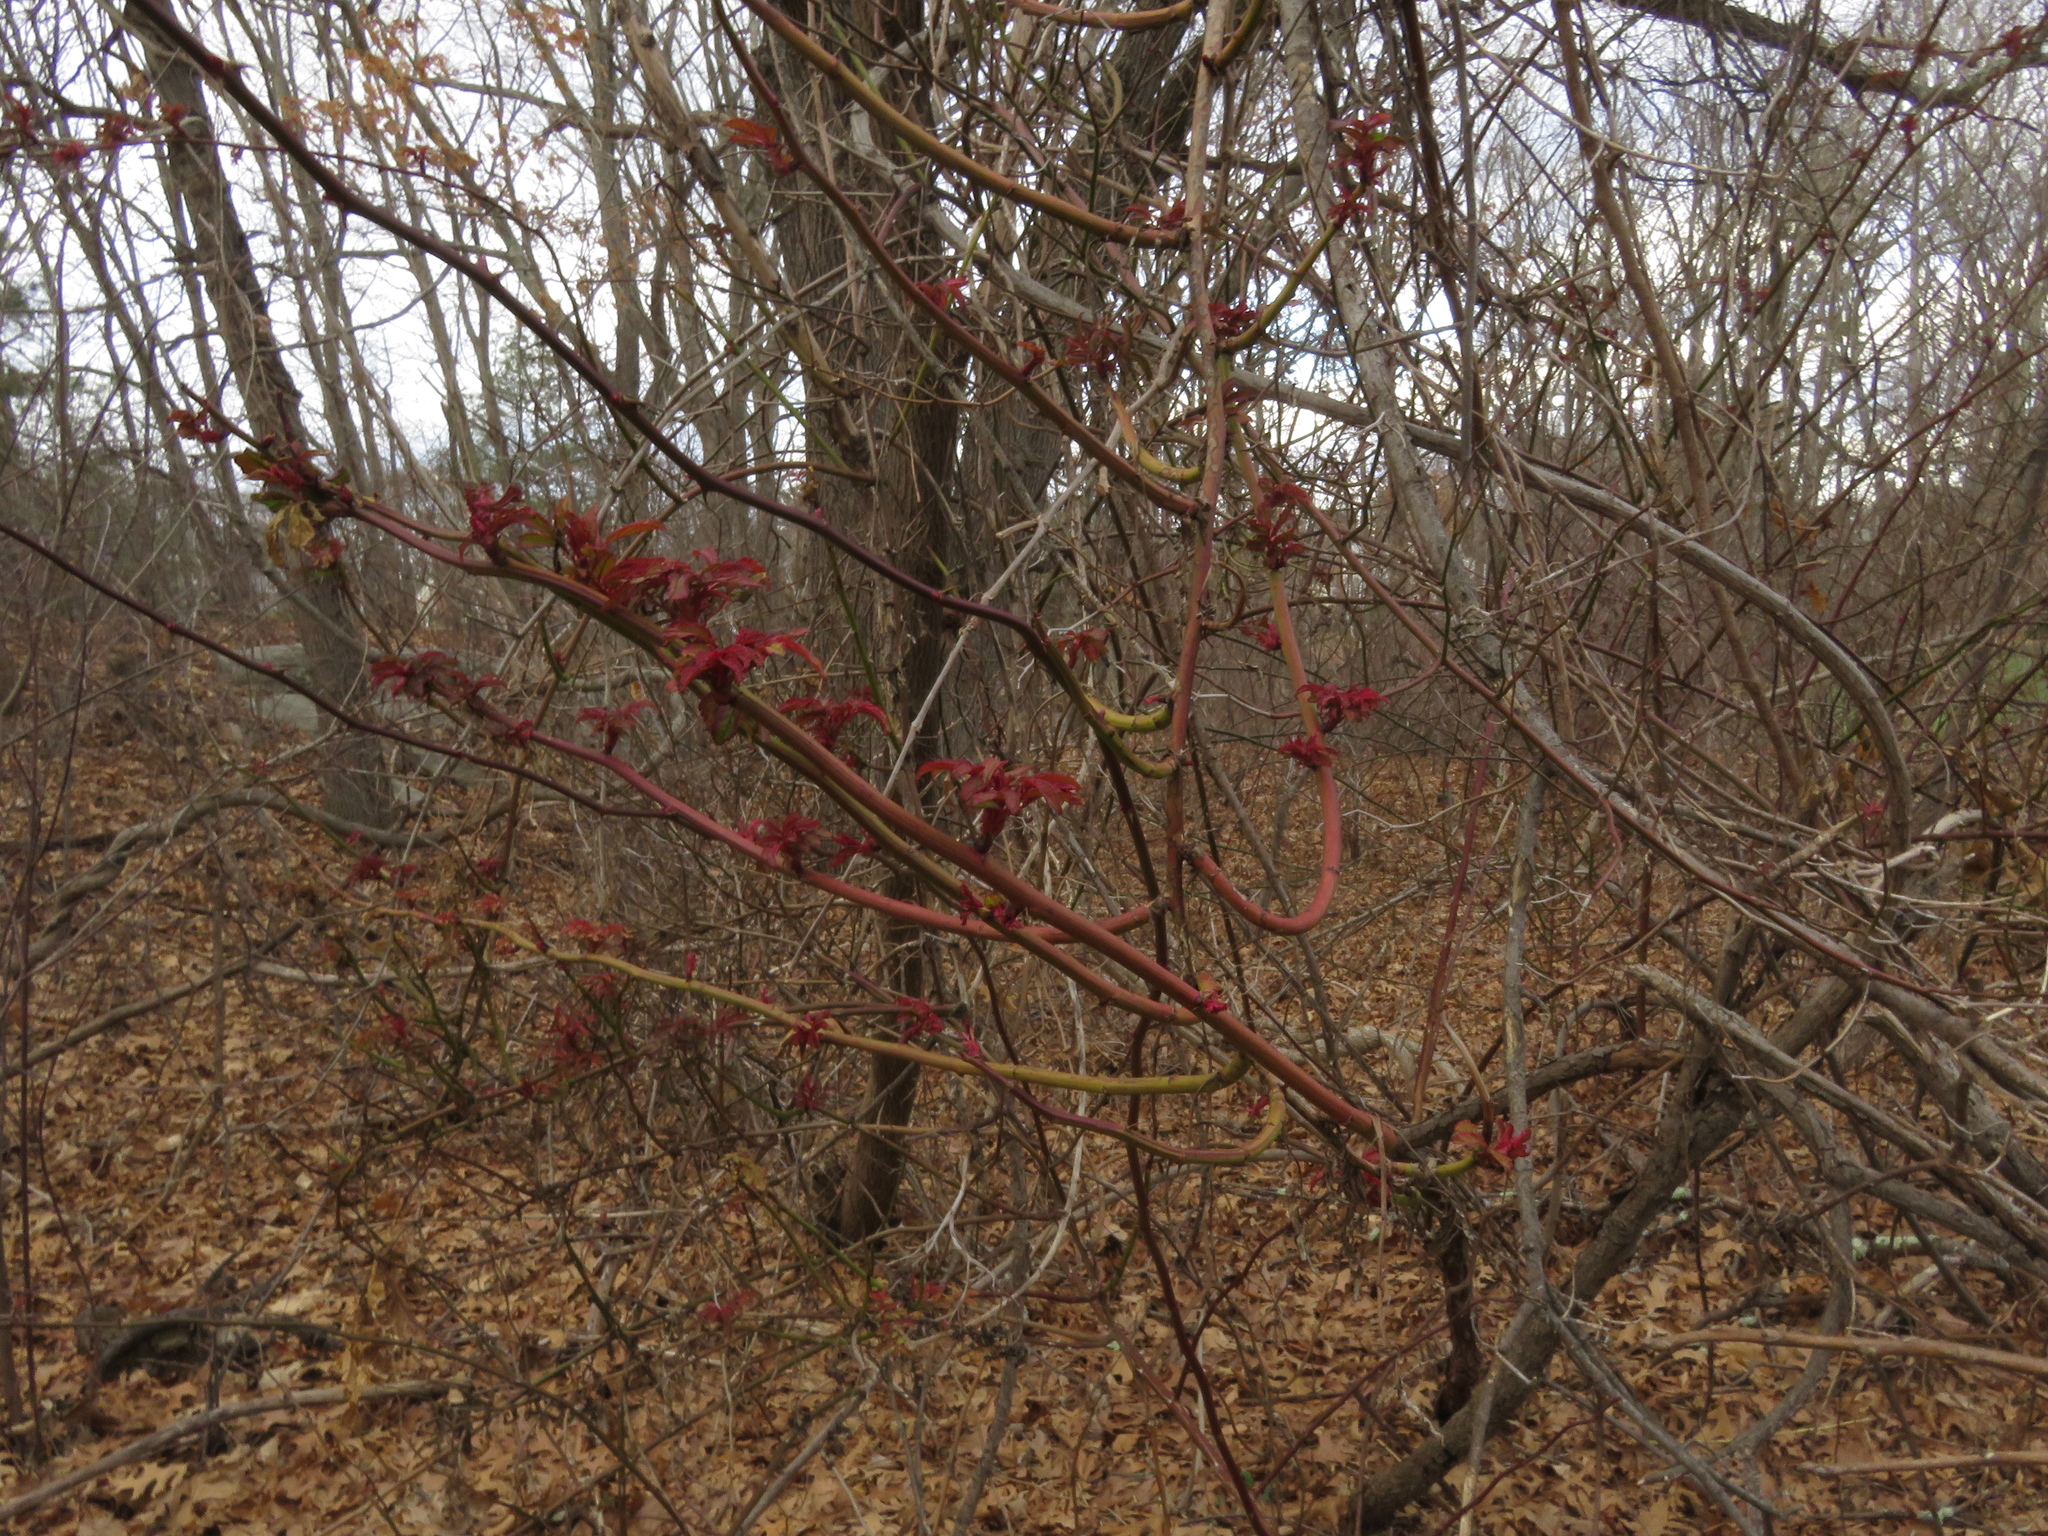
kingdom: Plantae
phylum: Tracheophyta
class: Magnoliopsida
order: Rosales
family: Rosaceae
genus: Rosa
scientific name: Rosa multiflora
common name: Multiflora rose
